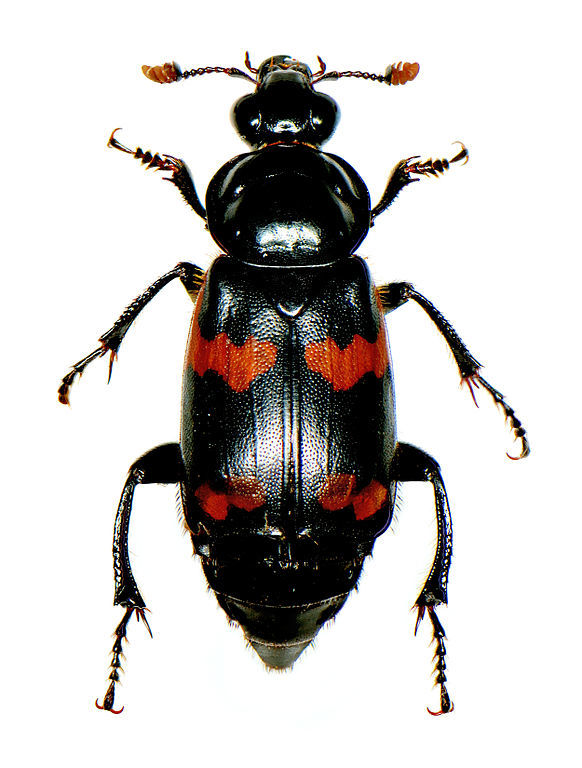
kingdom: Animalia
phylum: Arthropoda
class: Insecta
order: Coleoptera
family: Staphylinidae
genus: Nicrophorus
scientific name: Nicrophorus sayi
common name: Say's burying beetle
